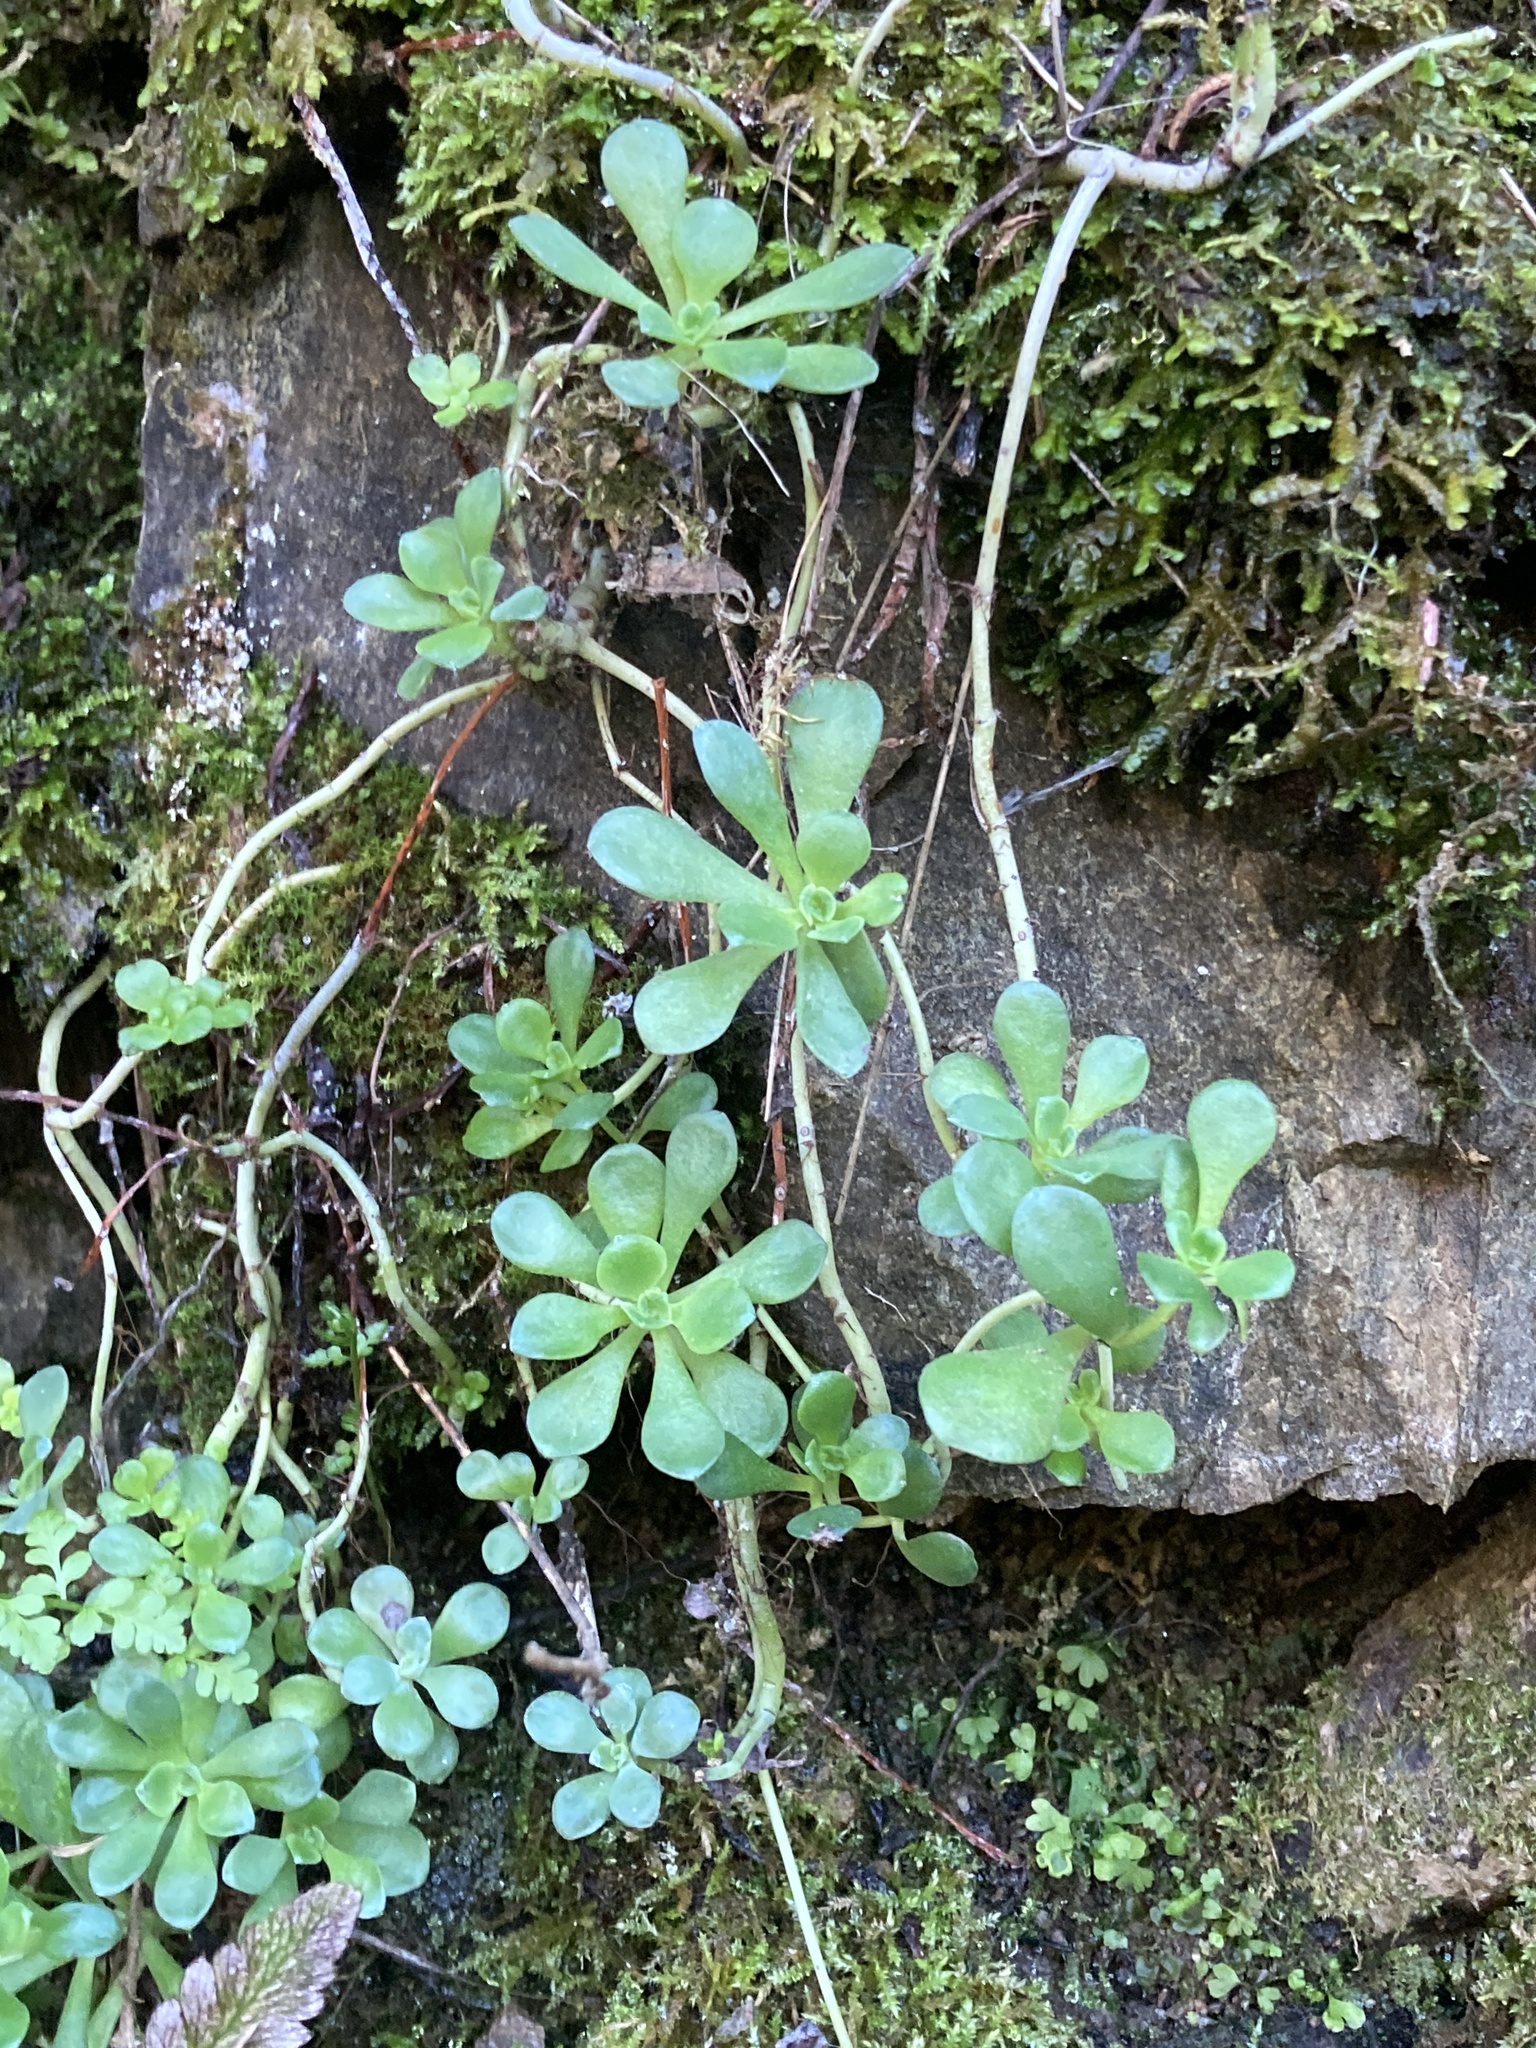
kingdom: Plantae
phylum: Tracheophyta
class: Magnoliopsida
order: Saxifragales
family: Crassulaceae
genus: Sedum
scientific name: Sedum spathulifolium
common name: Colorado stonecrop
